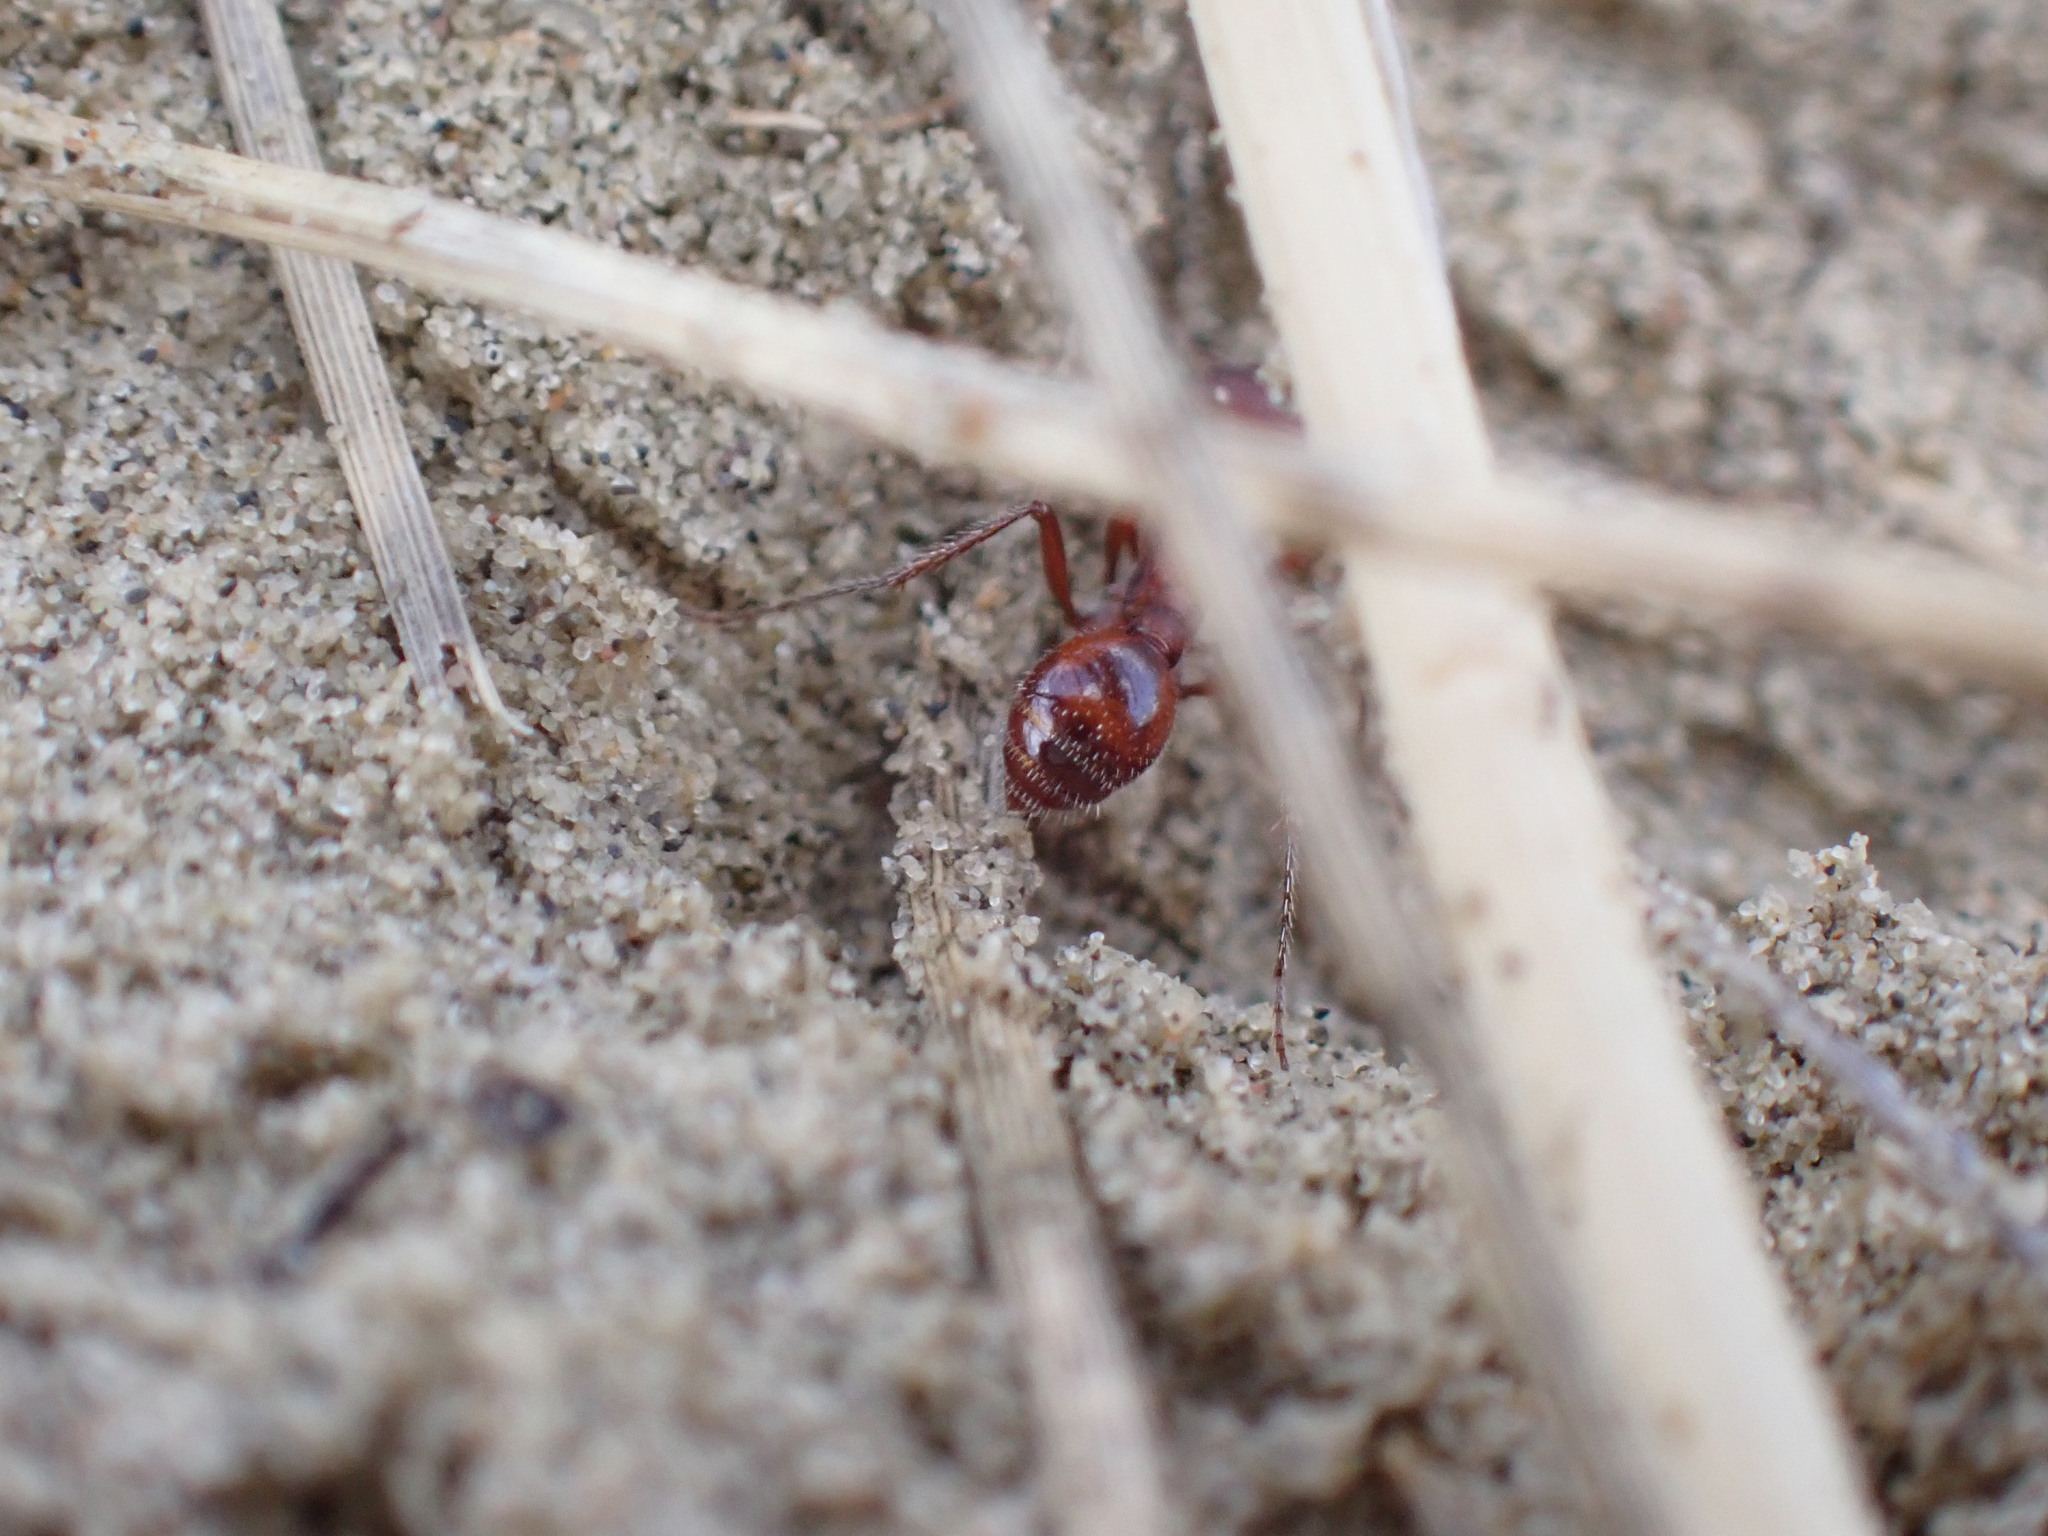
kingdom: Animalia
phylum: Arthropoda
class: Insecta
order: Hymenoptera
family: Formicidae
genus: Pogonomyrmex
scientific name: Pogonomyrmex occidentalis
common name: Western harvester ant
